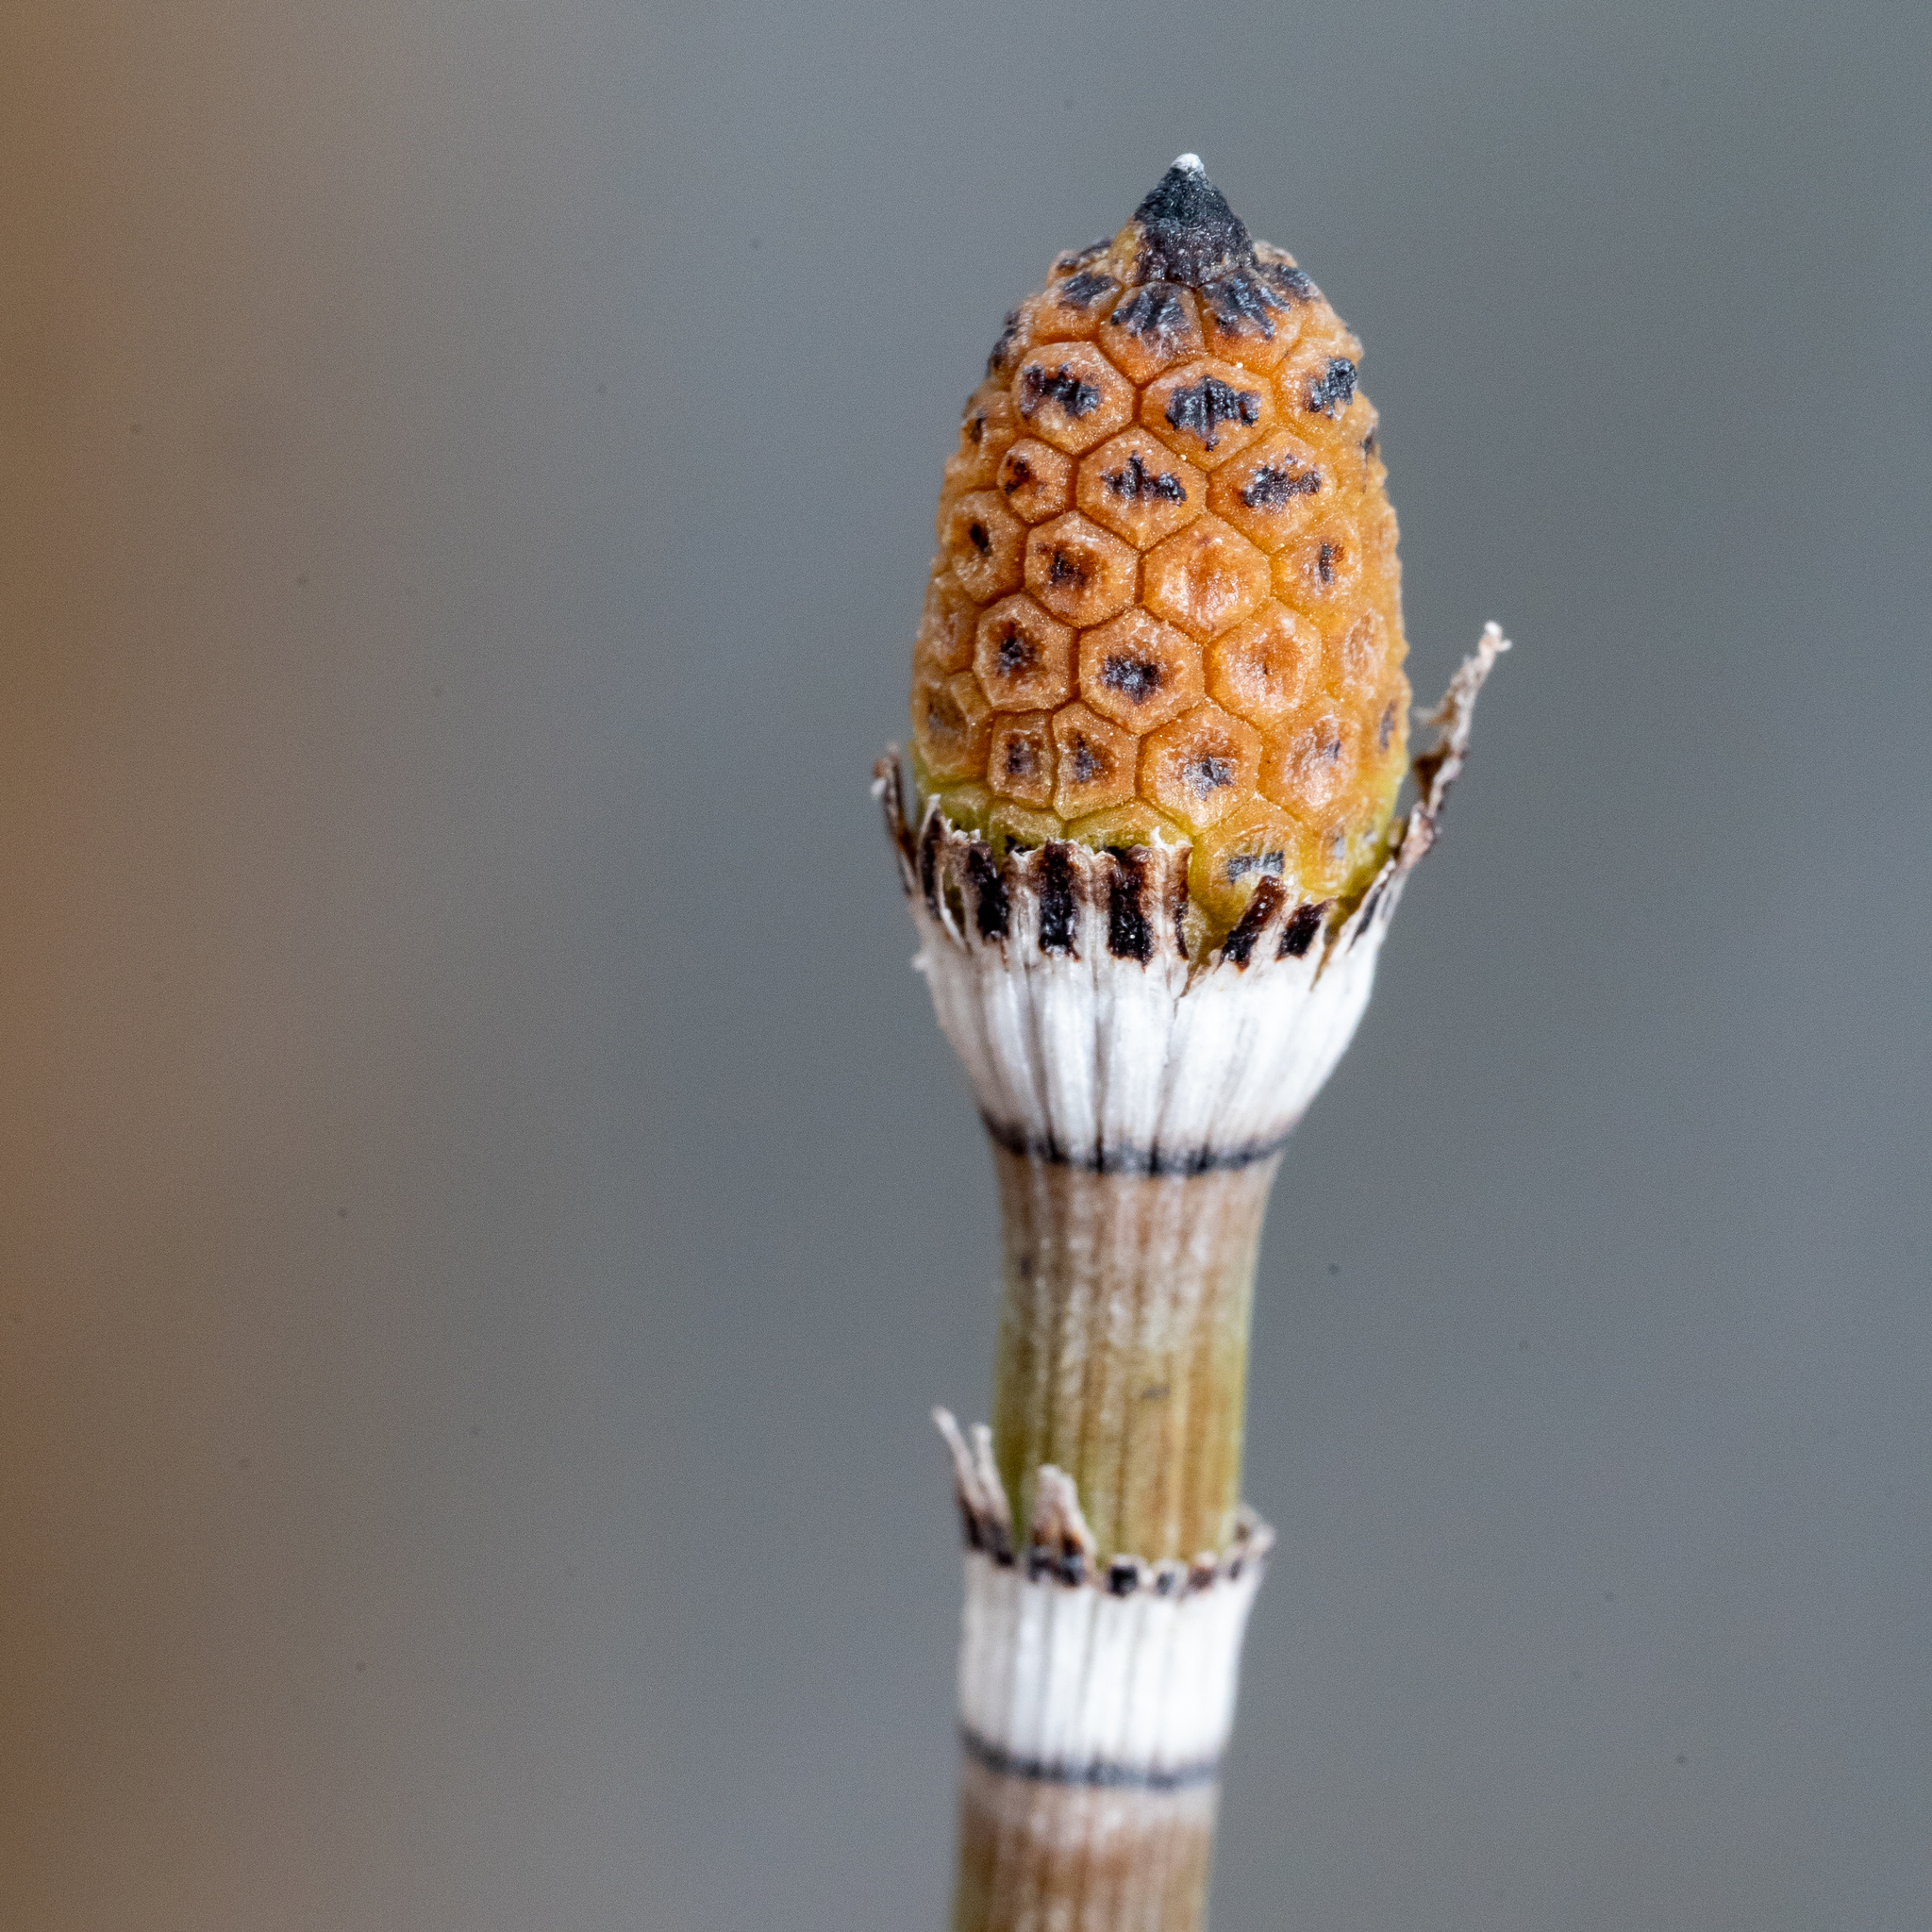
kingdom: Plantae
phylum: Tracheophyta
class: Polypodiopsida
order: Equisetales
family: Equisetaceae
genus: Equisetum
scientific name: Equisetum praealtum
